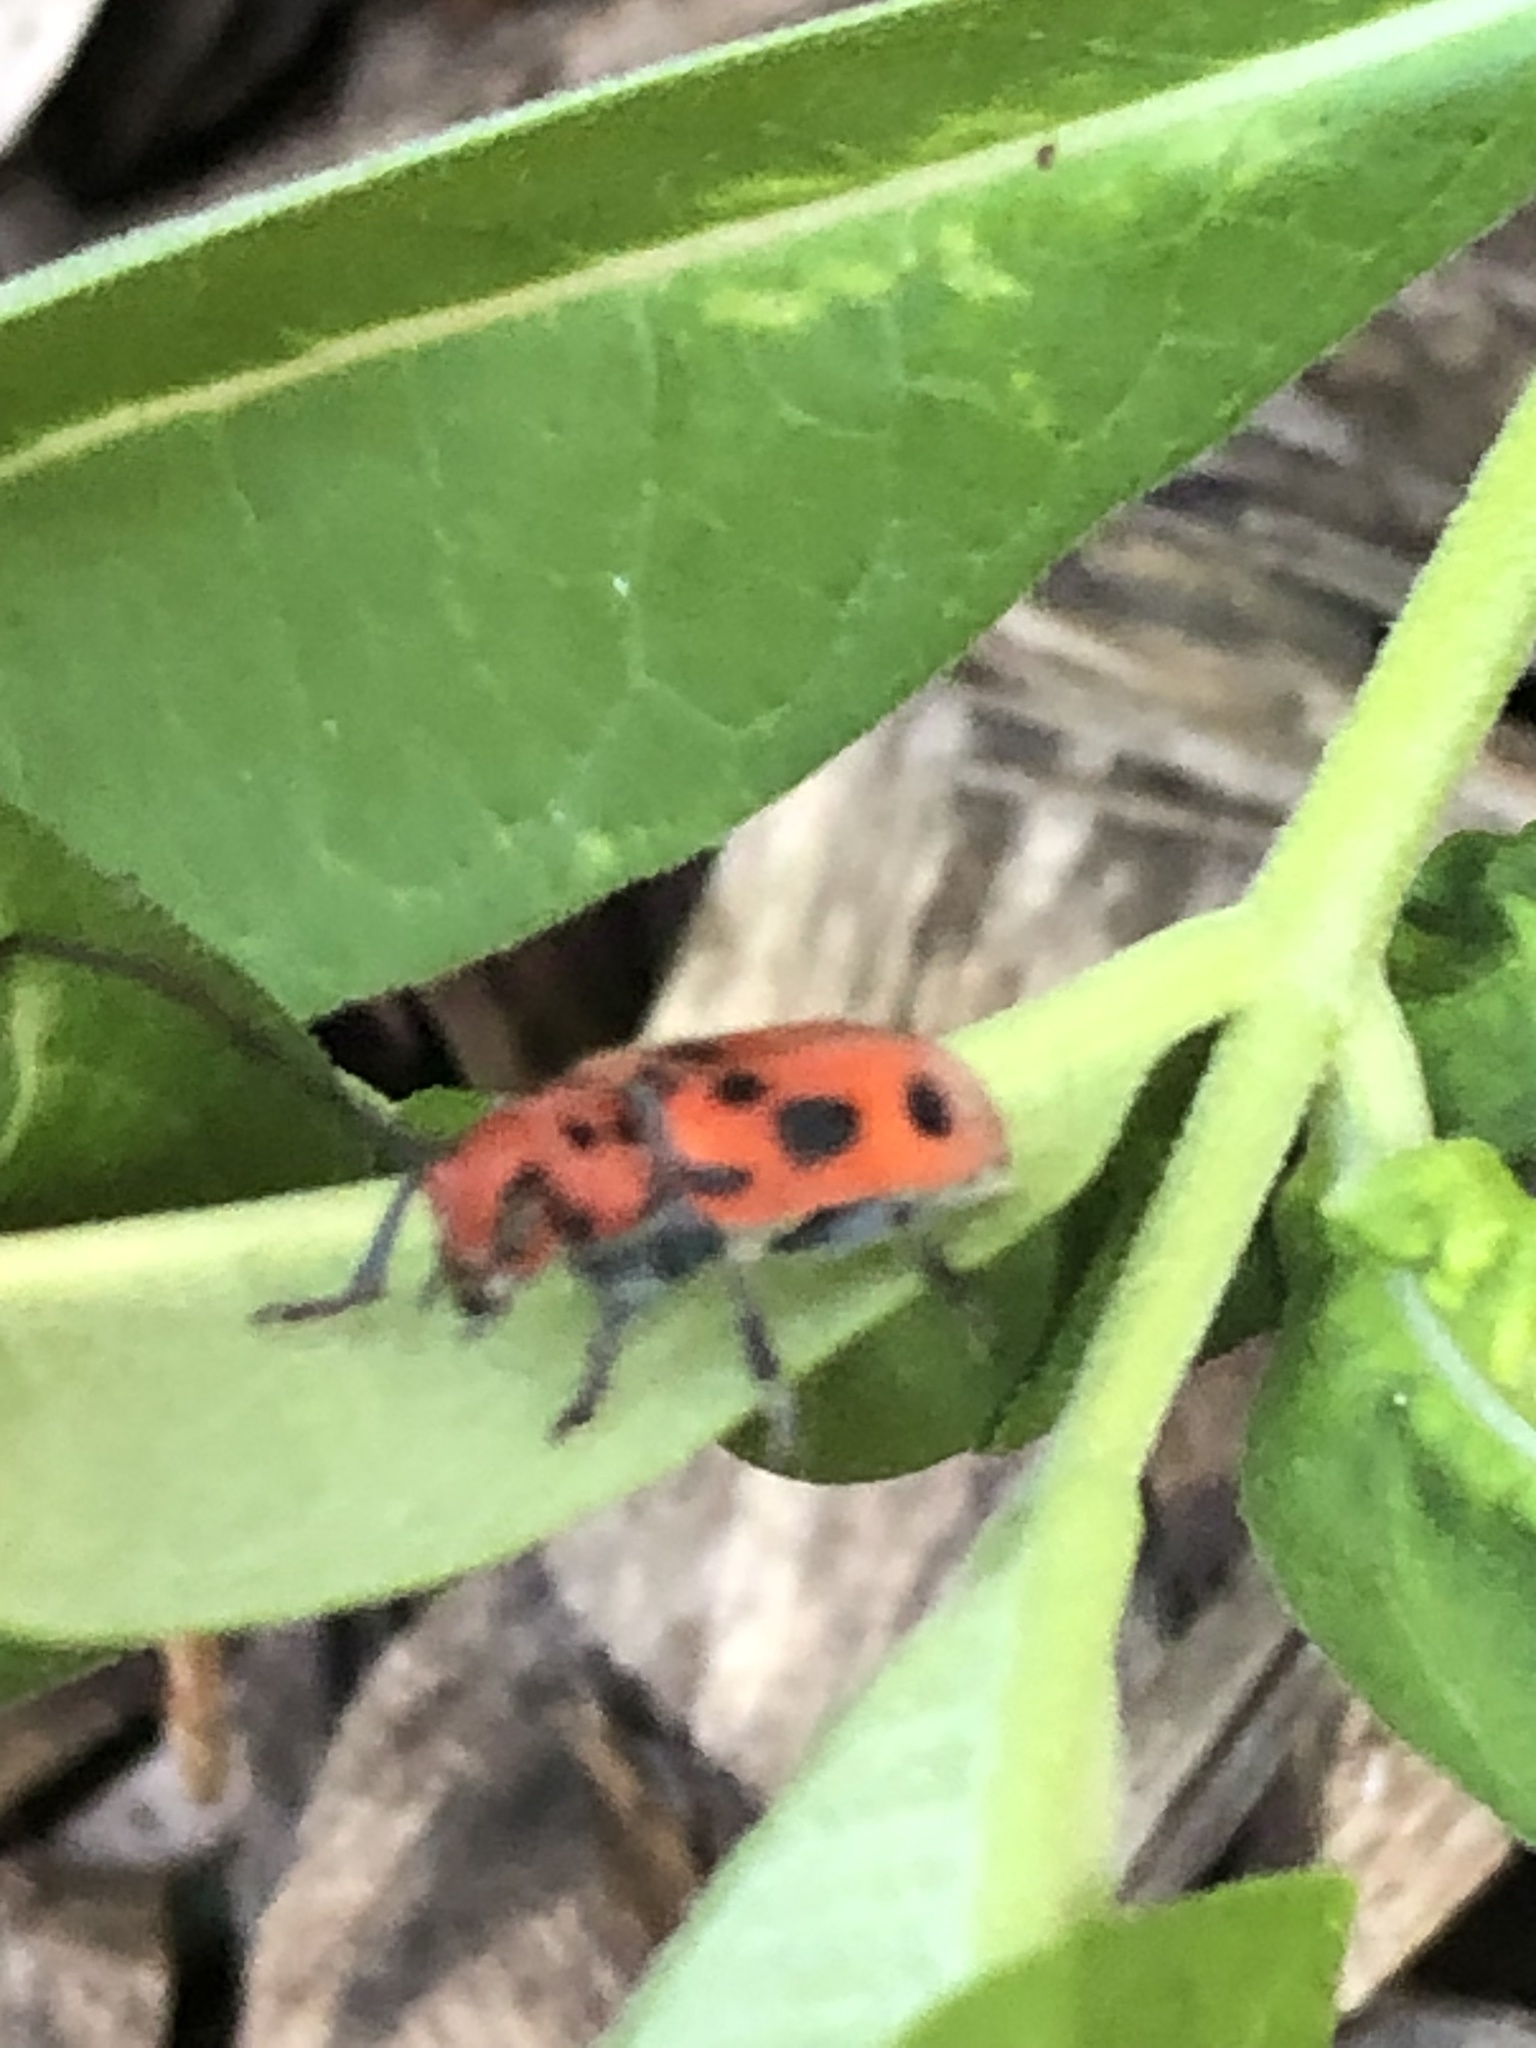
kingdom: Animalia
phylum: Arthropoda
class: Insecta
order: Coleoptera
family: Cerambycidae
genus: Tetraopes
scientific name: Tetraopes tetrophthalmus
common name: Red milkweed beetle
